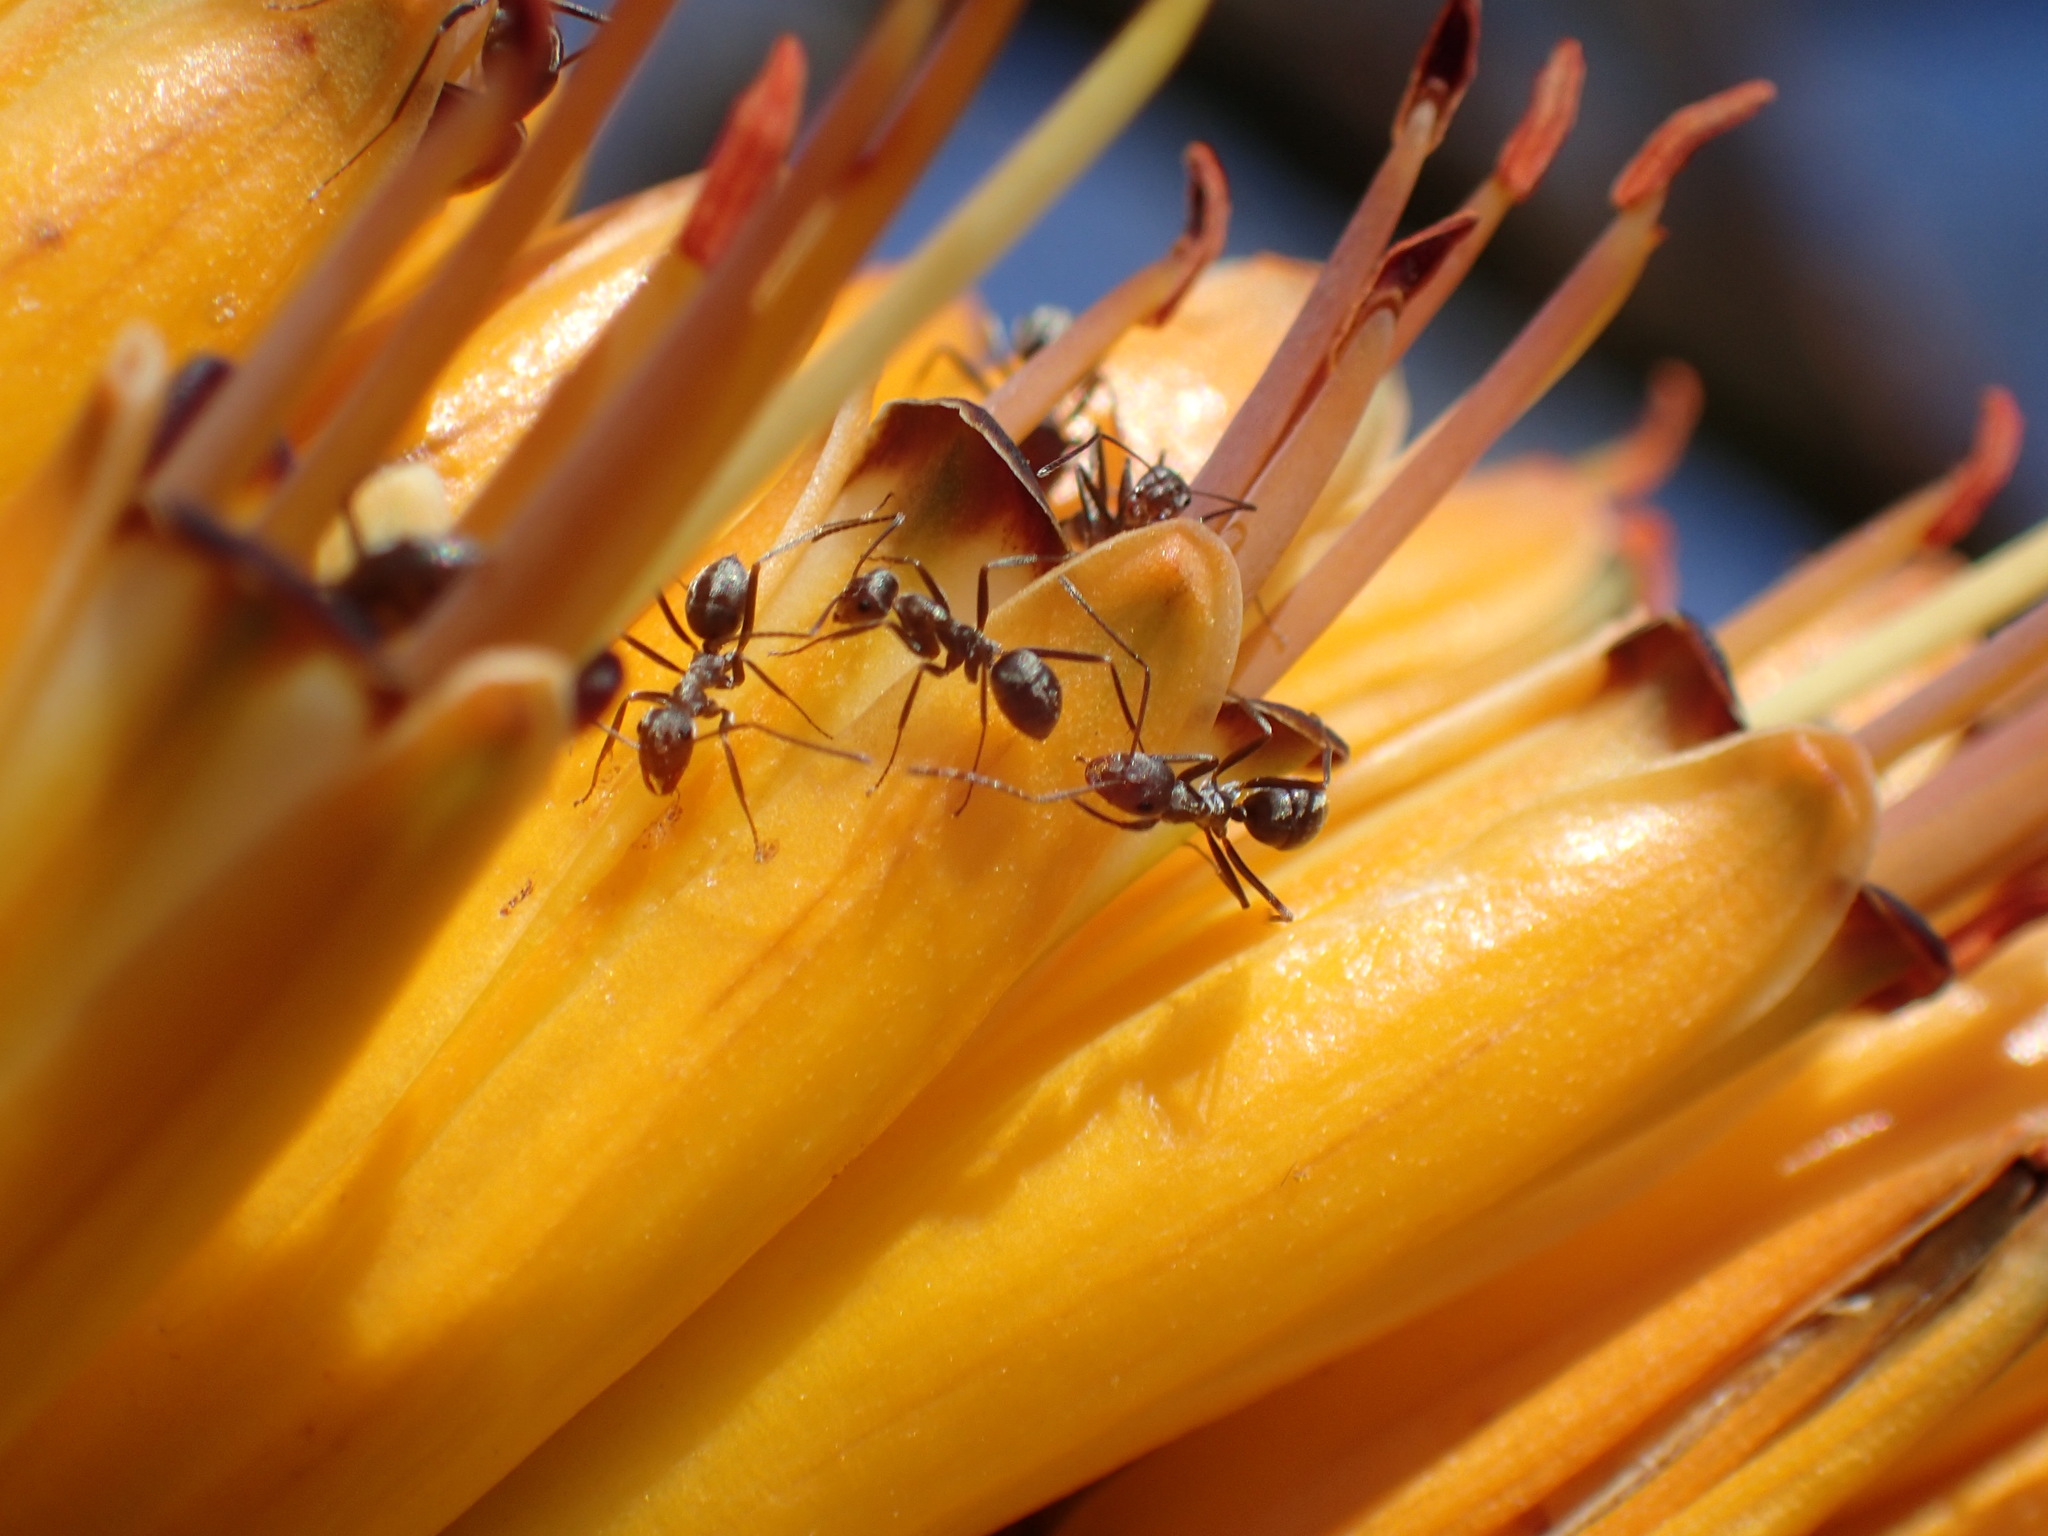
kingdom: Animalia
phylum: Arthropoda
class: Insecta
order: Hymenoptera
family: Formicidae
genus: Anoplolepis
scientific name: Anoplolepis custodiens
